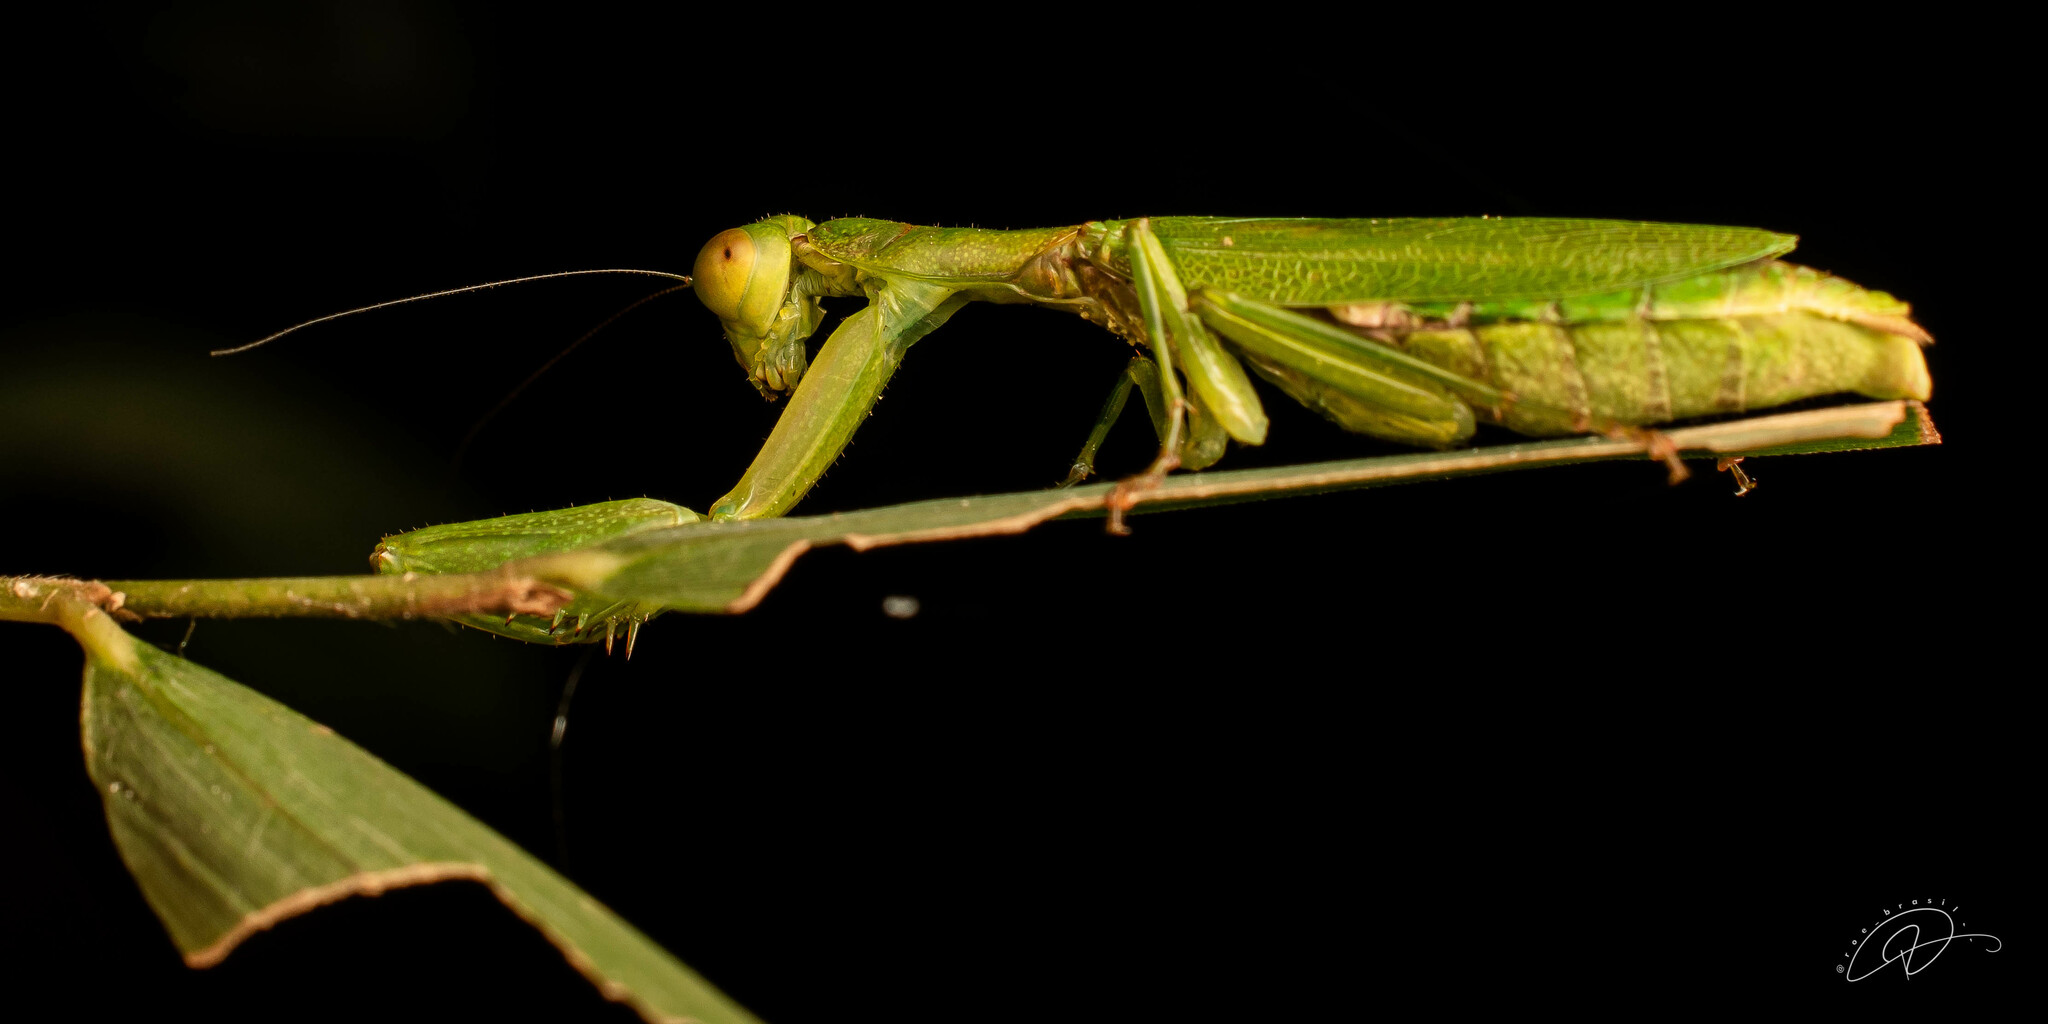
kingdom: Animalia
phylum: Arthropoda
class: Insecta
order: Mantodea
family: Acanthopidae
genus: Acontista
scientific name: Acontista concinna
